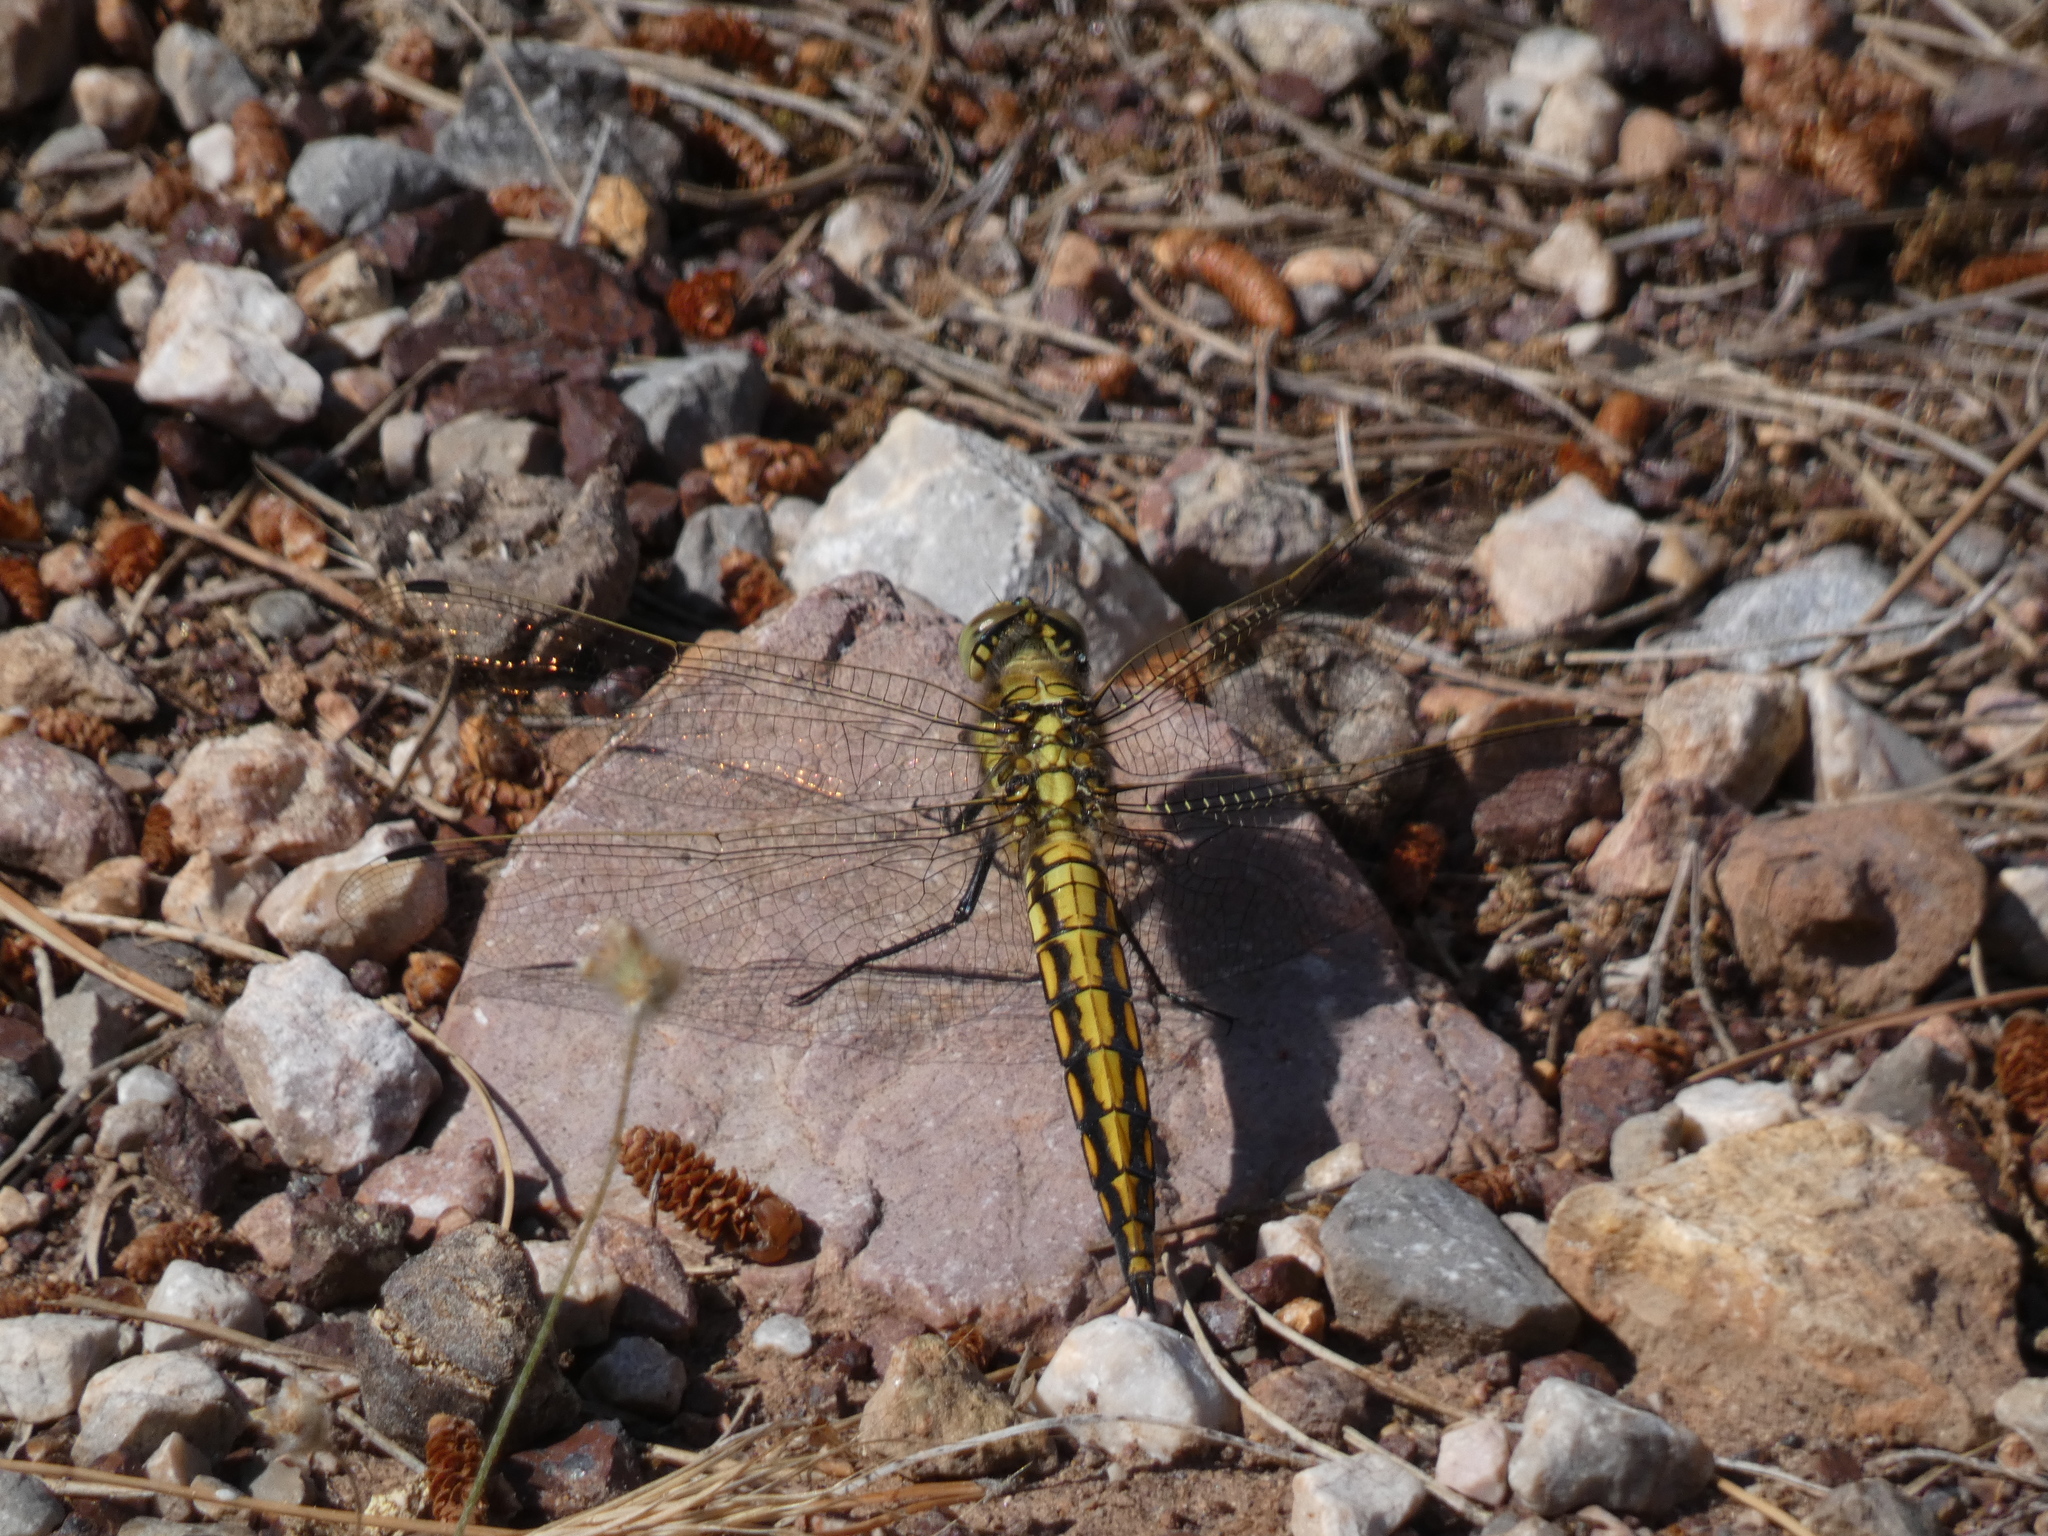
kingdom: Animalia
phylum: Arthropoda
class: Insecta
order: Odonata
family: Libellulidae
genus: Orthetrum
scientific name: Orthetrum cancellatum
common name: Black-tailed skimmer
